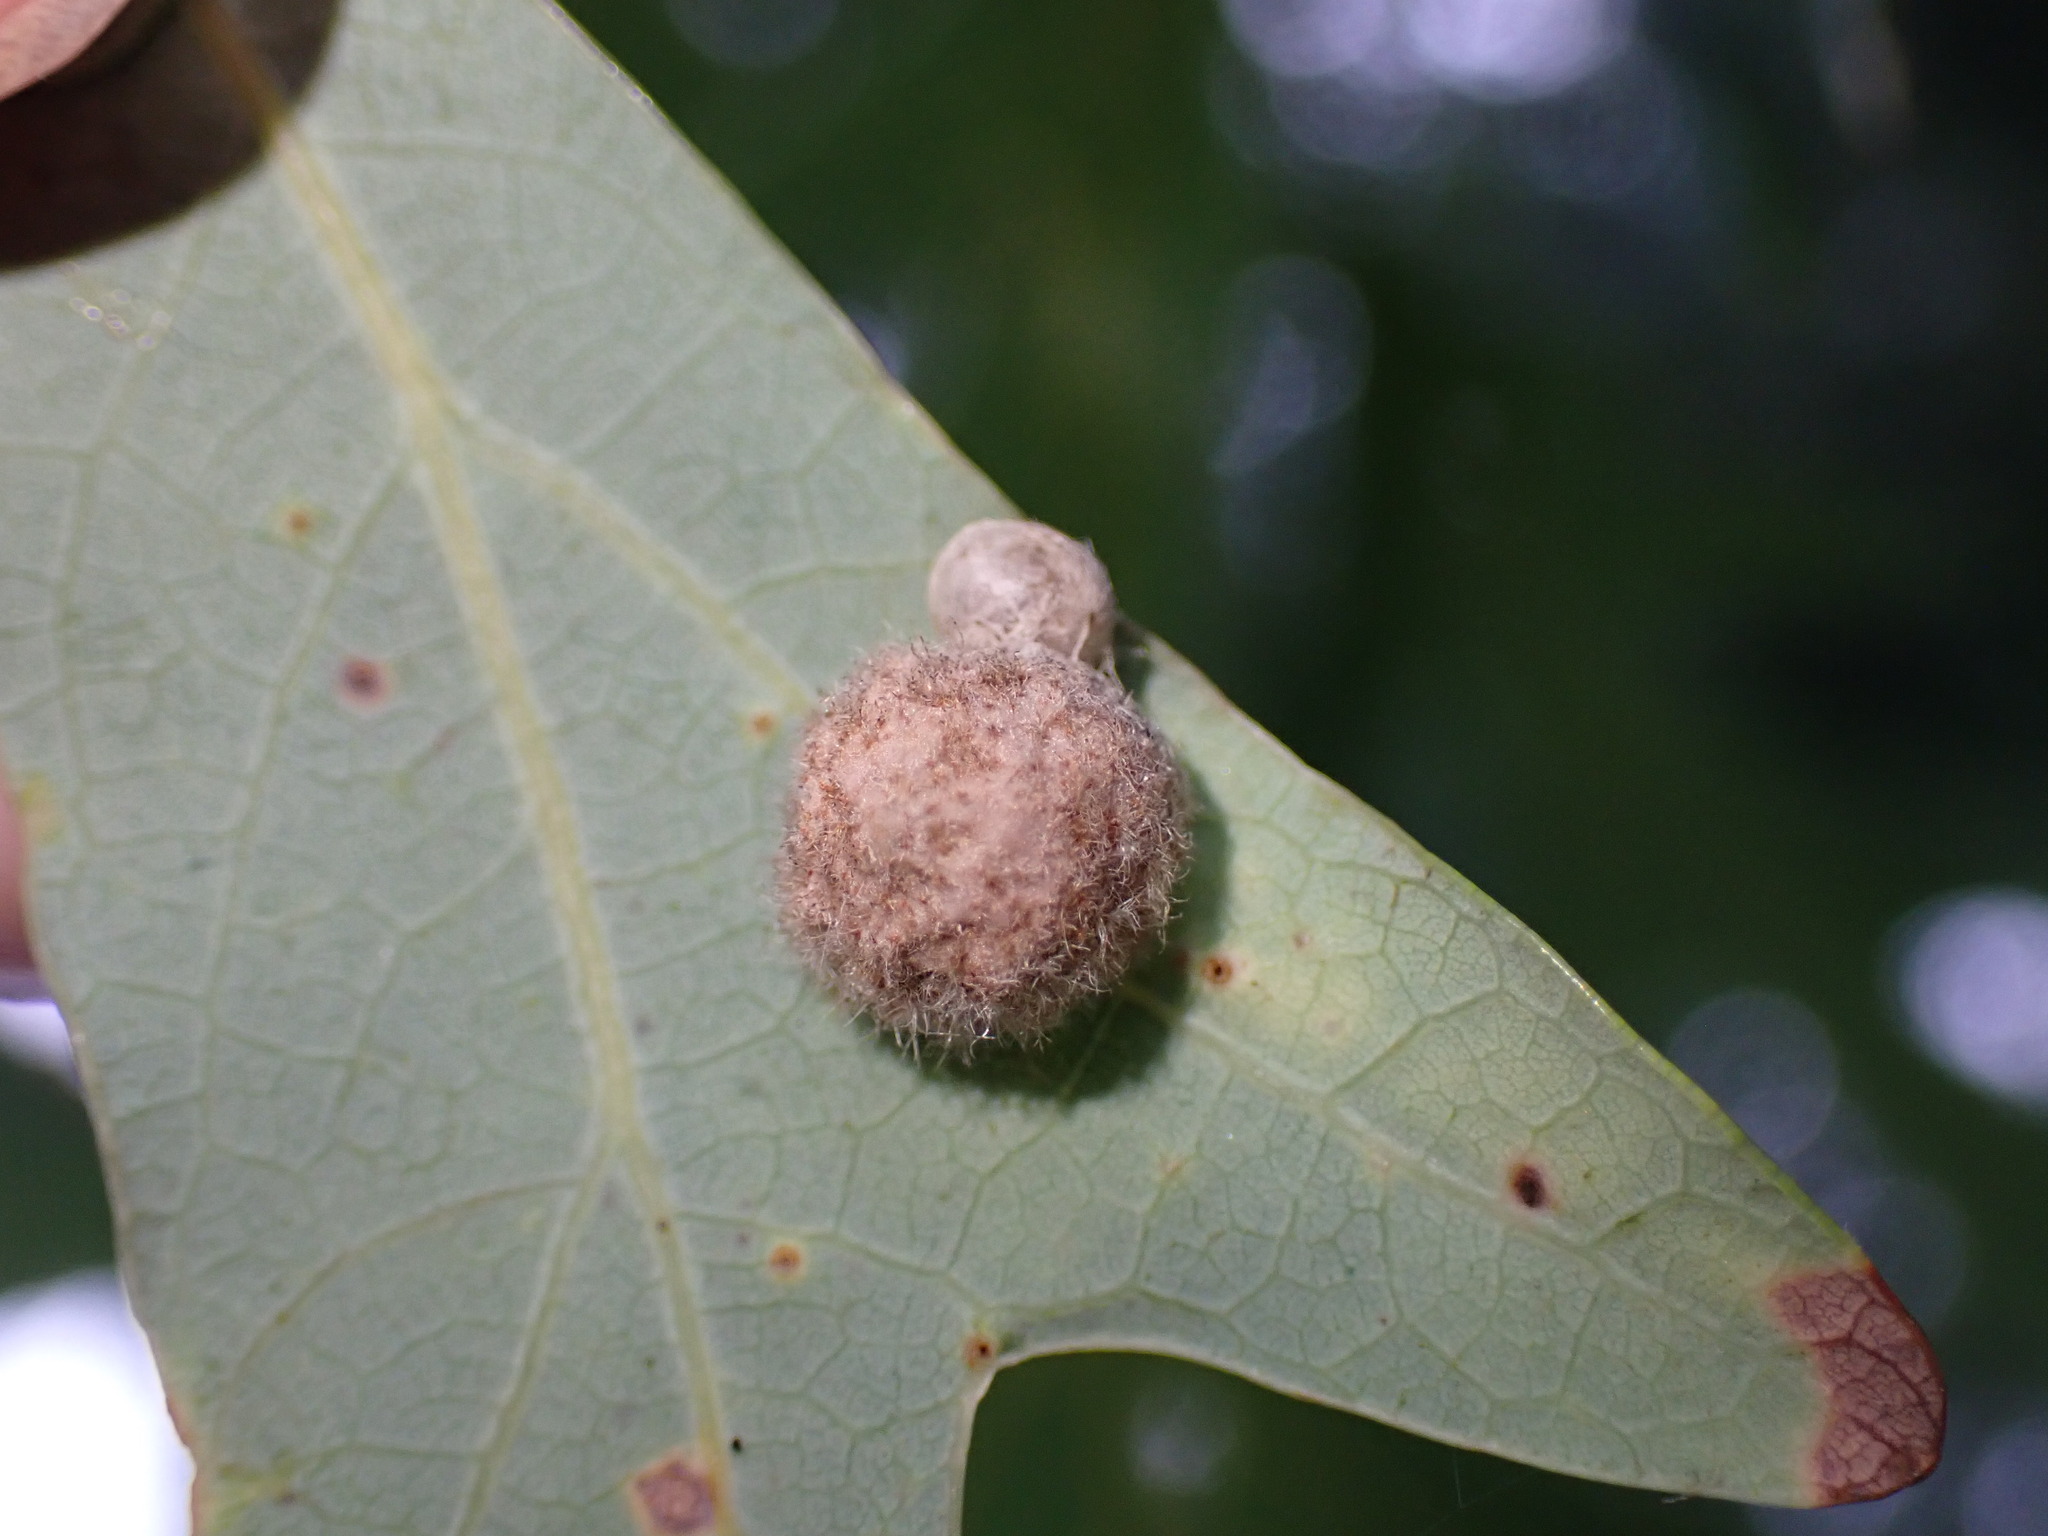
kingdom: Animalia
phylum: Arthropoda
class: Insecta
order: Hymenoptera
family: Cynipidae
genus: Philonix
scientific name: Philonix fulvicollis
